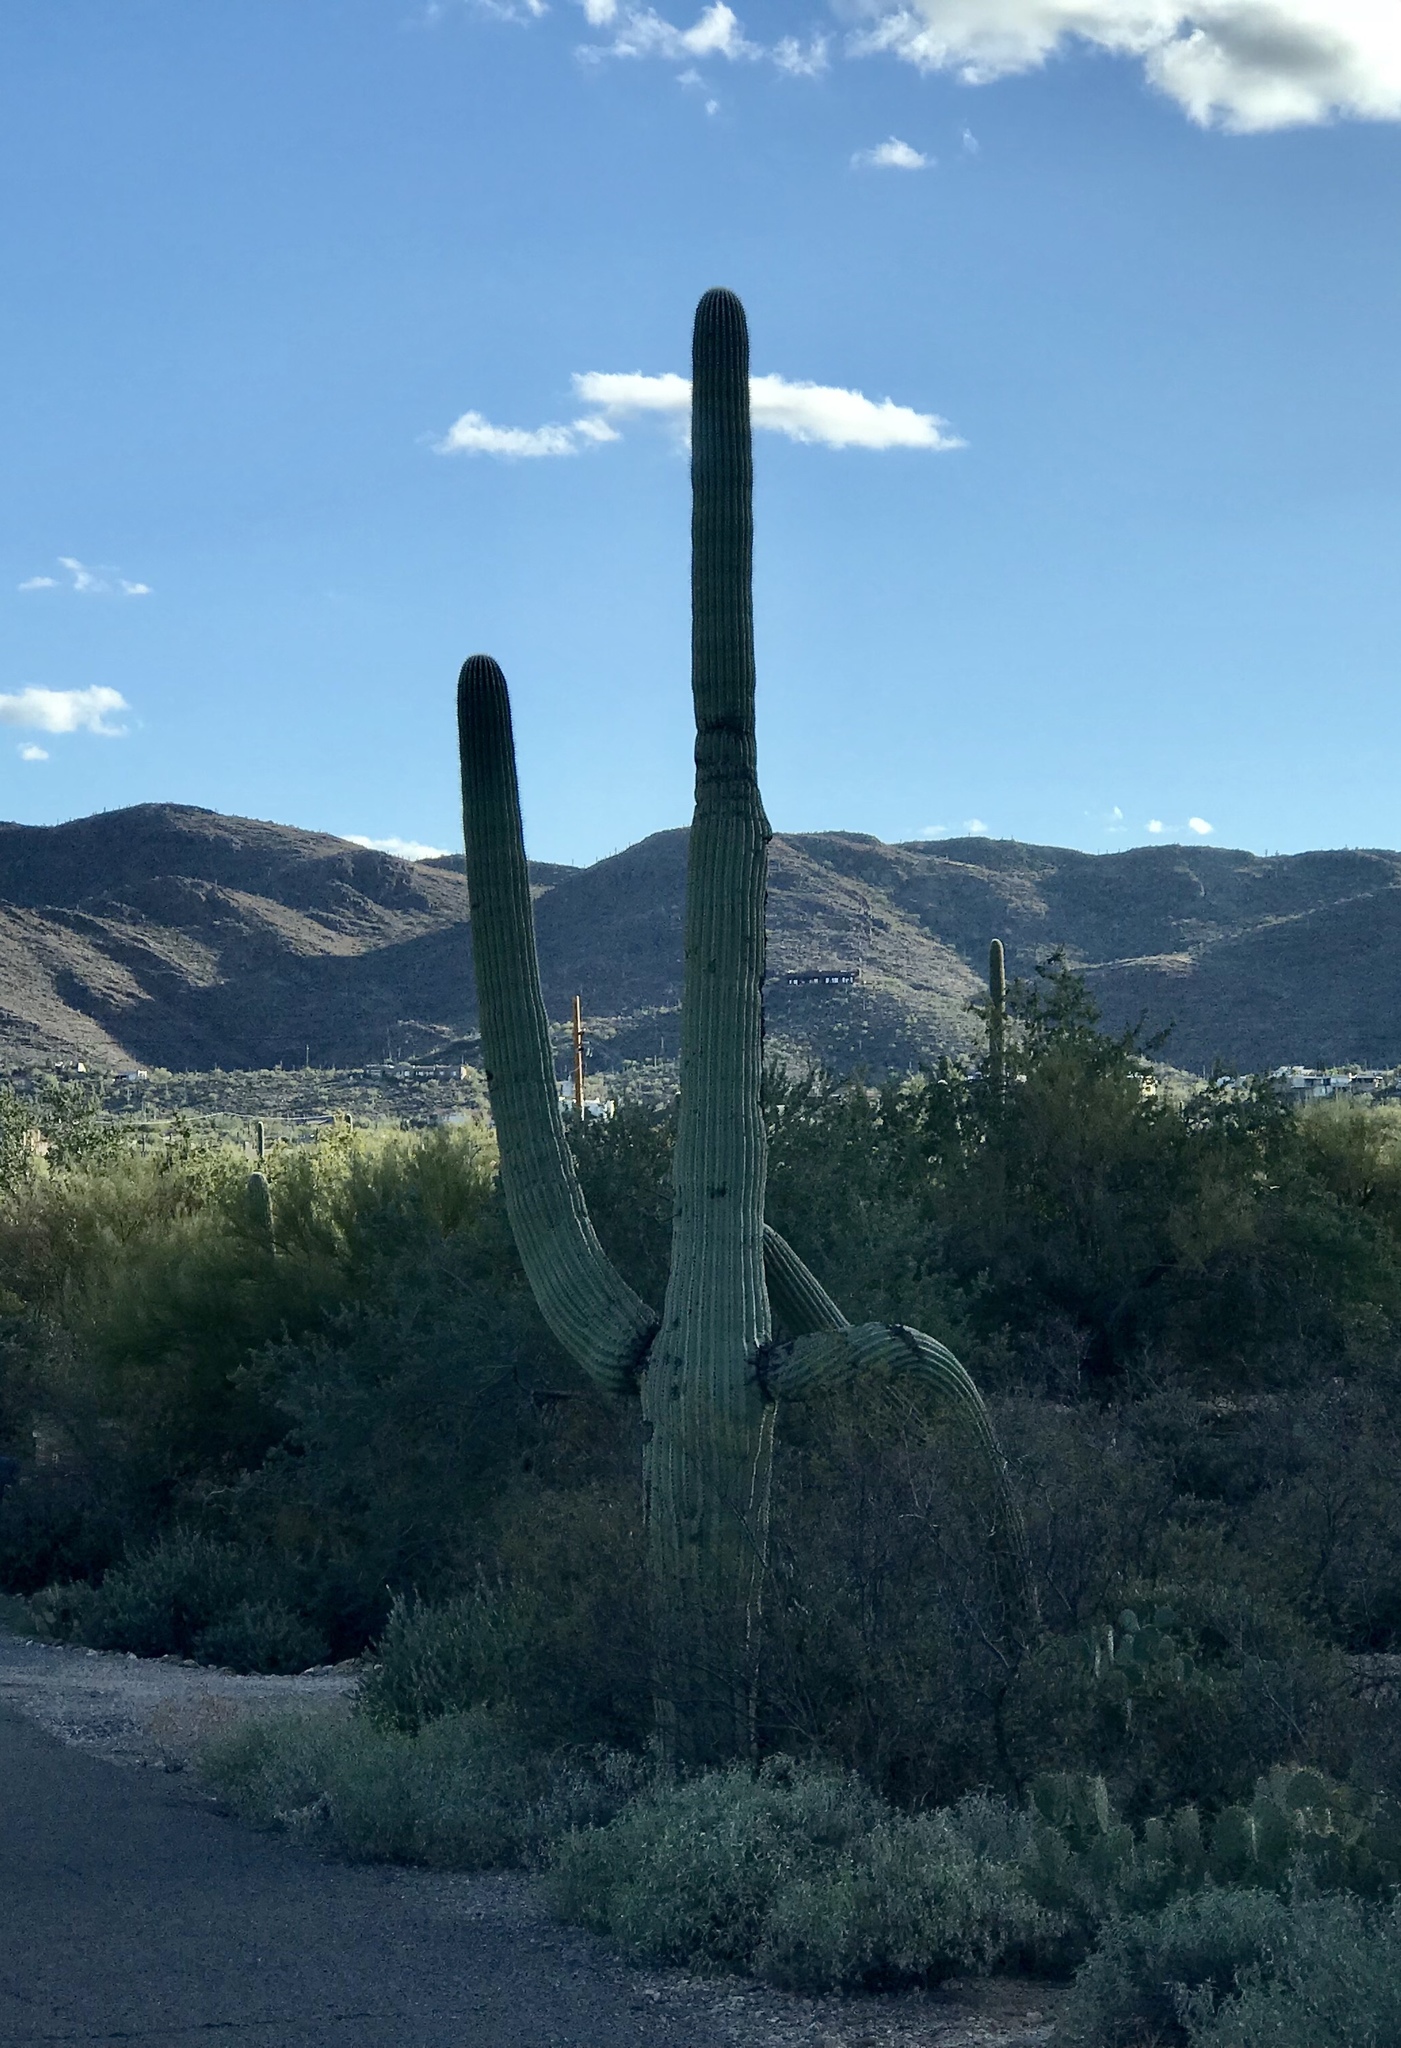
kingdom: Plantae
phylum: Tracheophyta
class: Magnoliopsida
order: Caryophyllales
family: Cactaceae
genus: Carnegiea
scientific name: Carnegiea gigantea
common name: Saguaro
